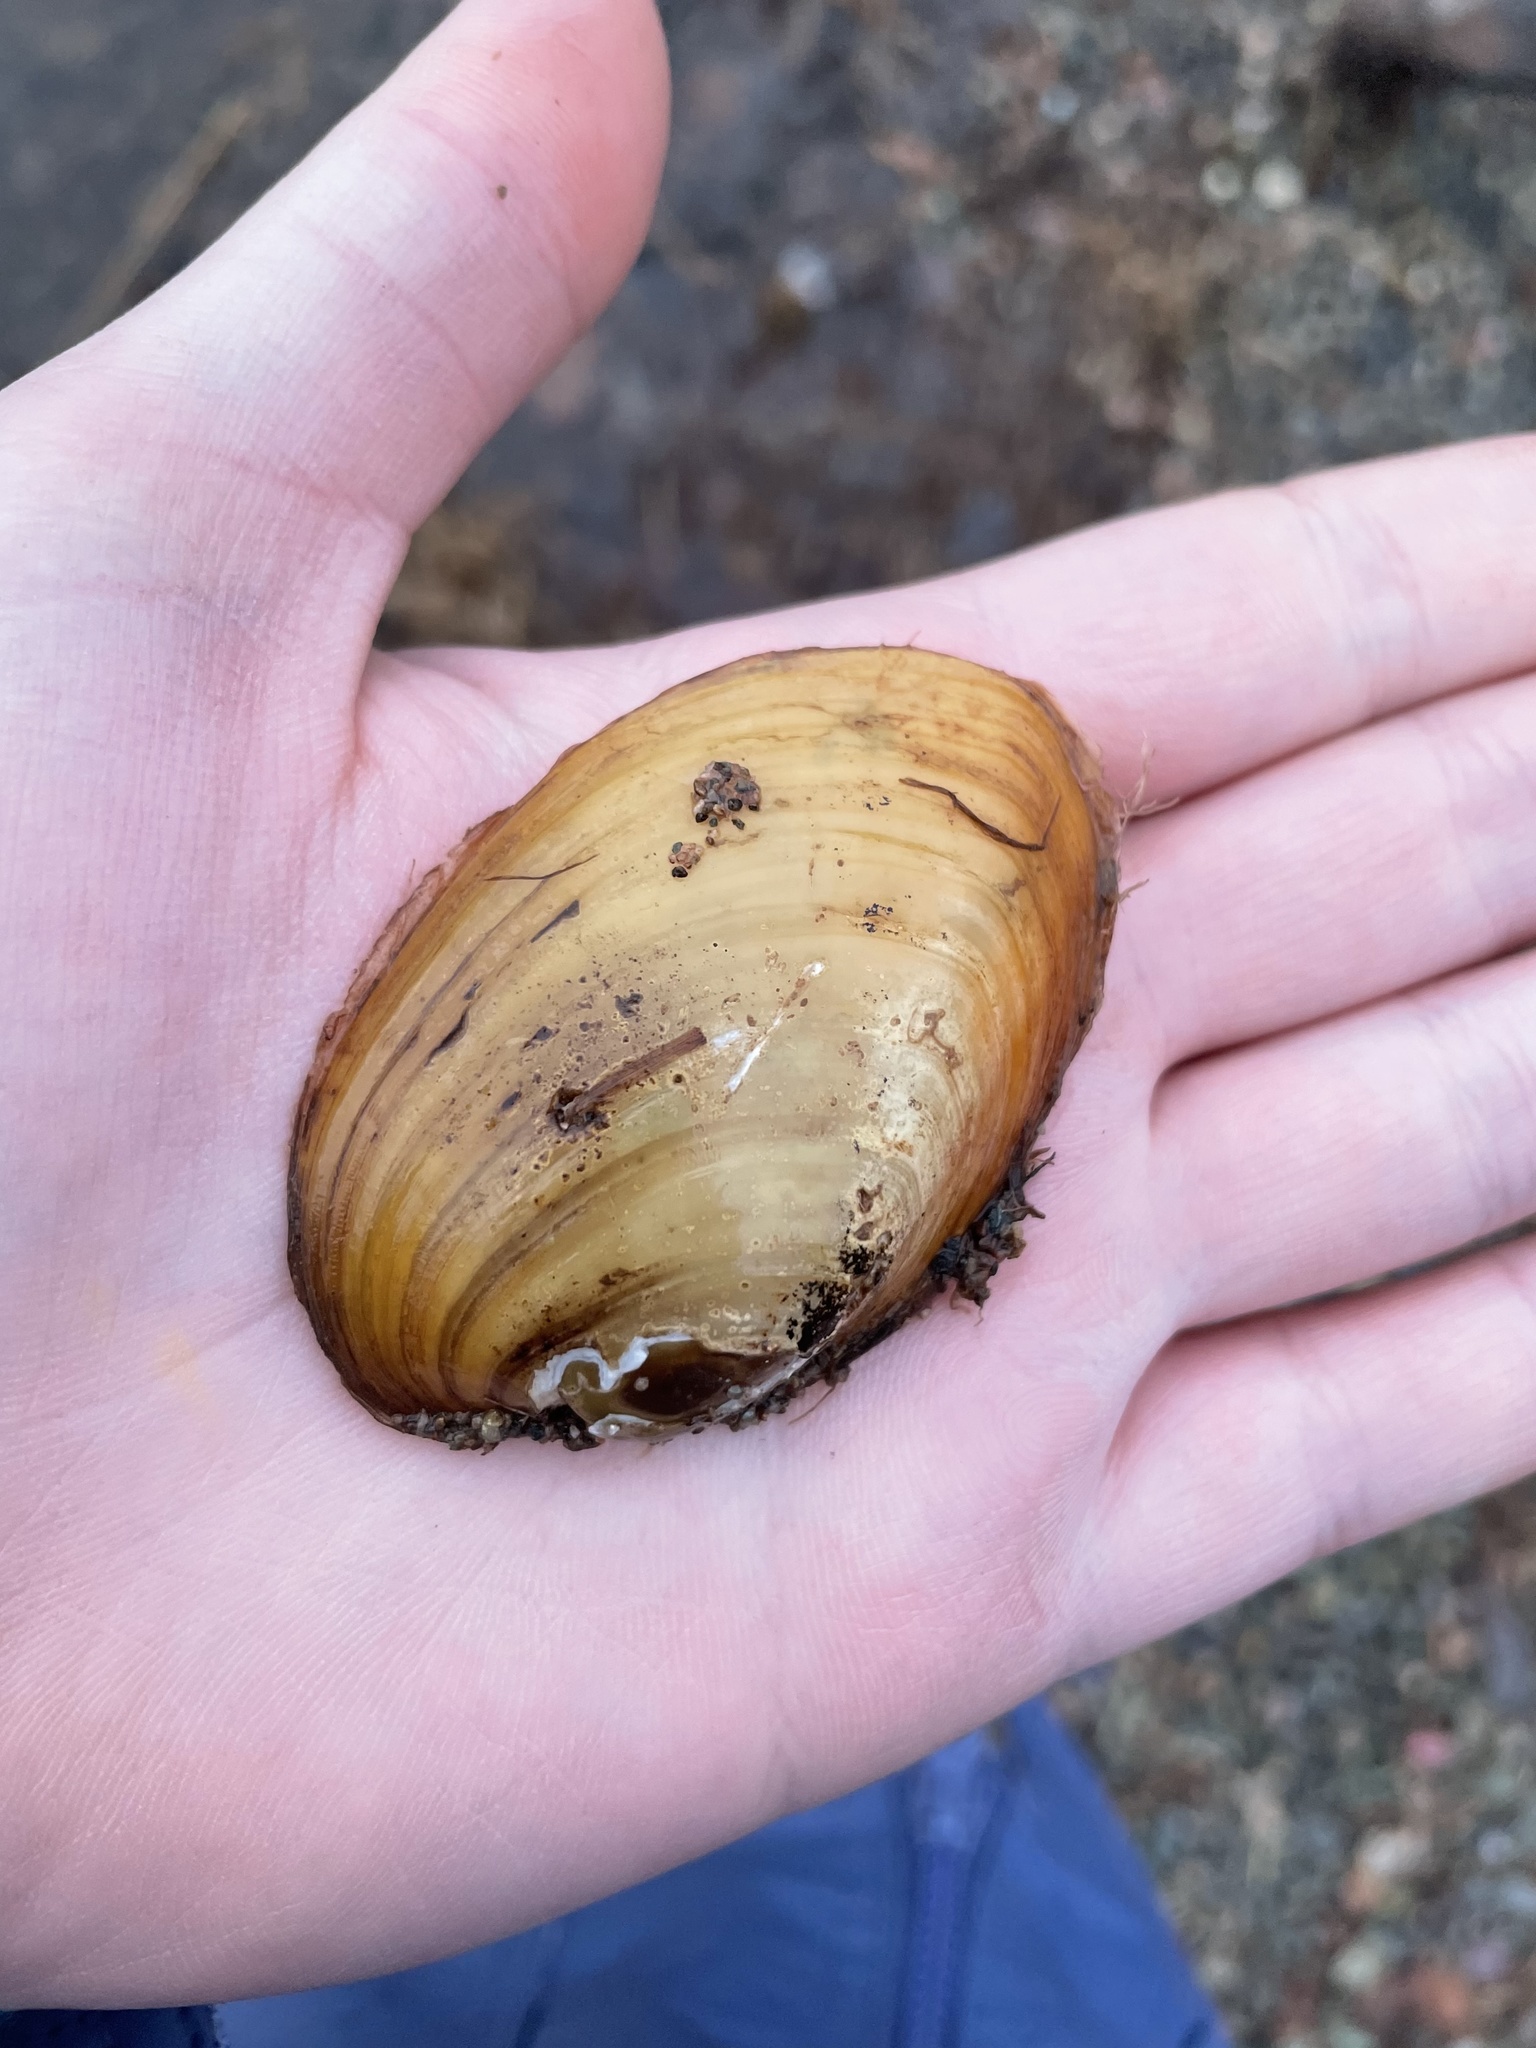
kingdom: Animalia
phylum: Mollusca
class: Bivalvia
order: Unionida
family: Unionidae
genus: Lampsilis
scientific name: Lampsilis cariosa
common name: Yellow lampmussel
